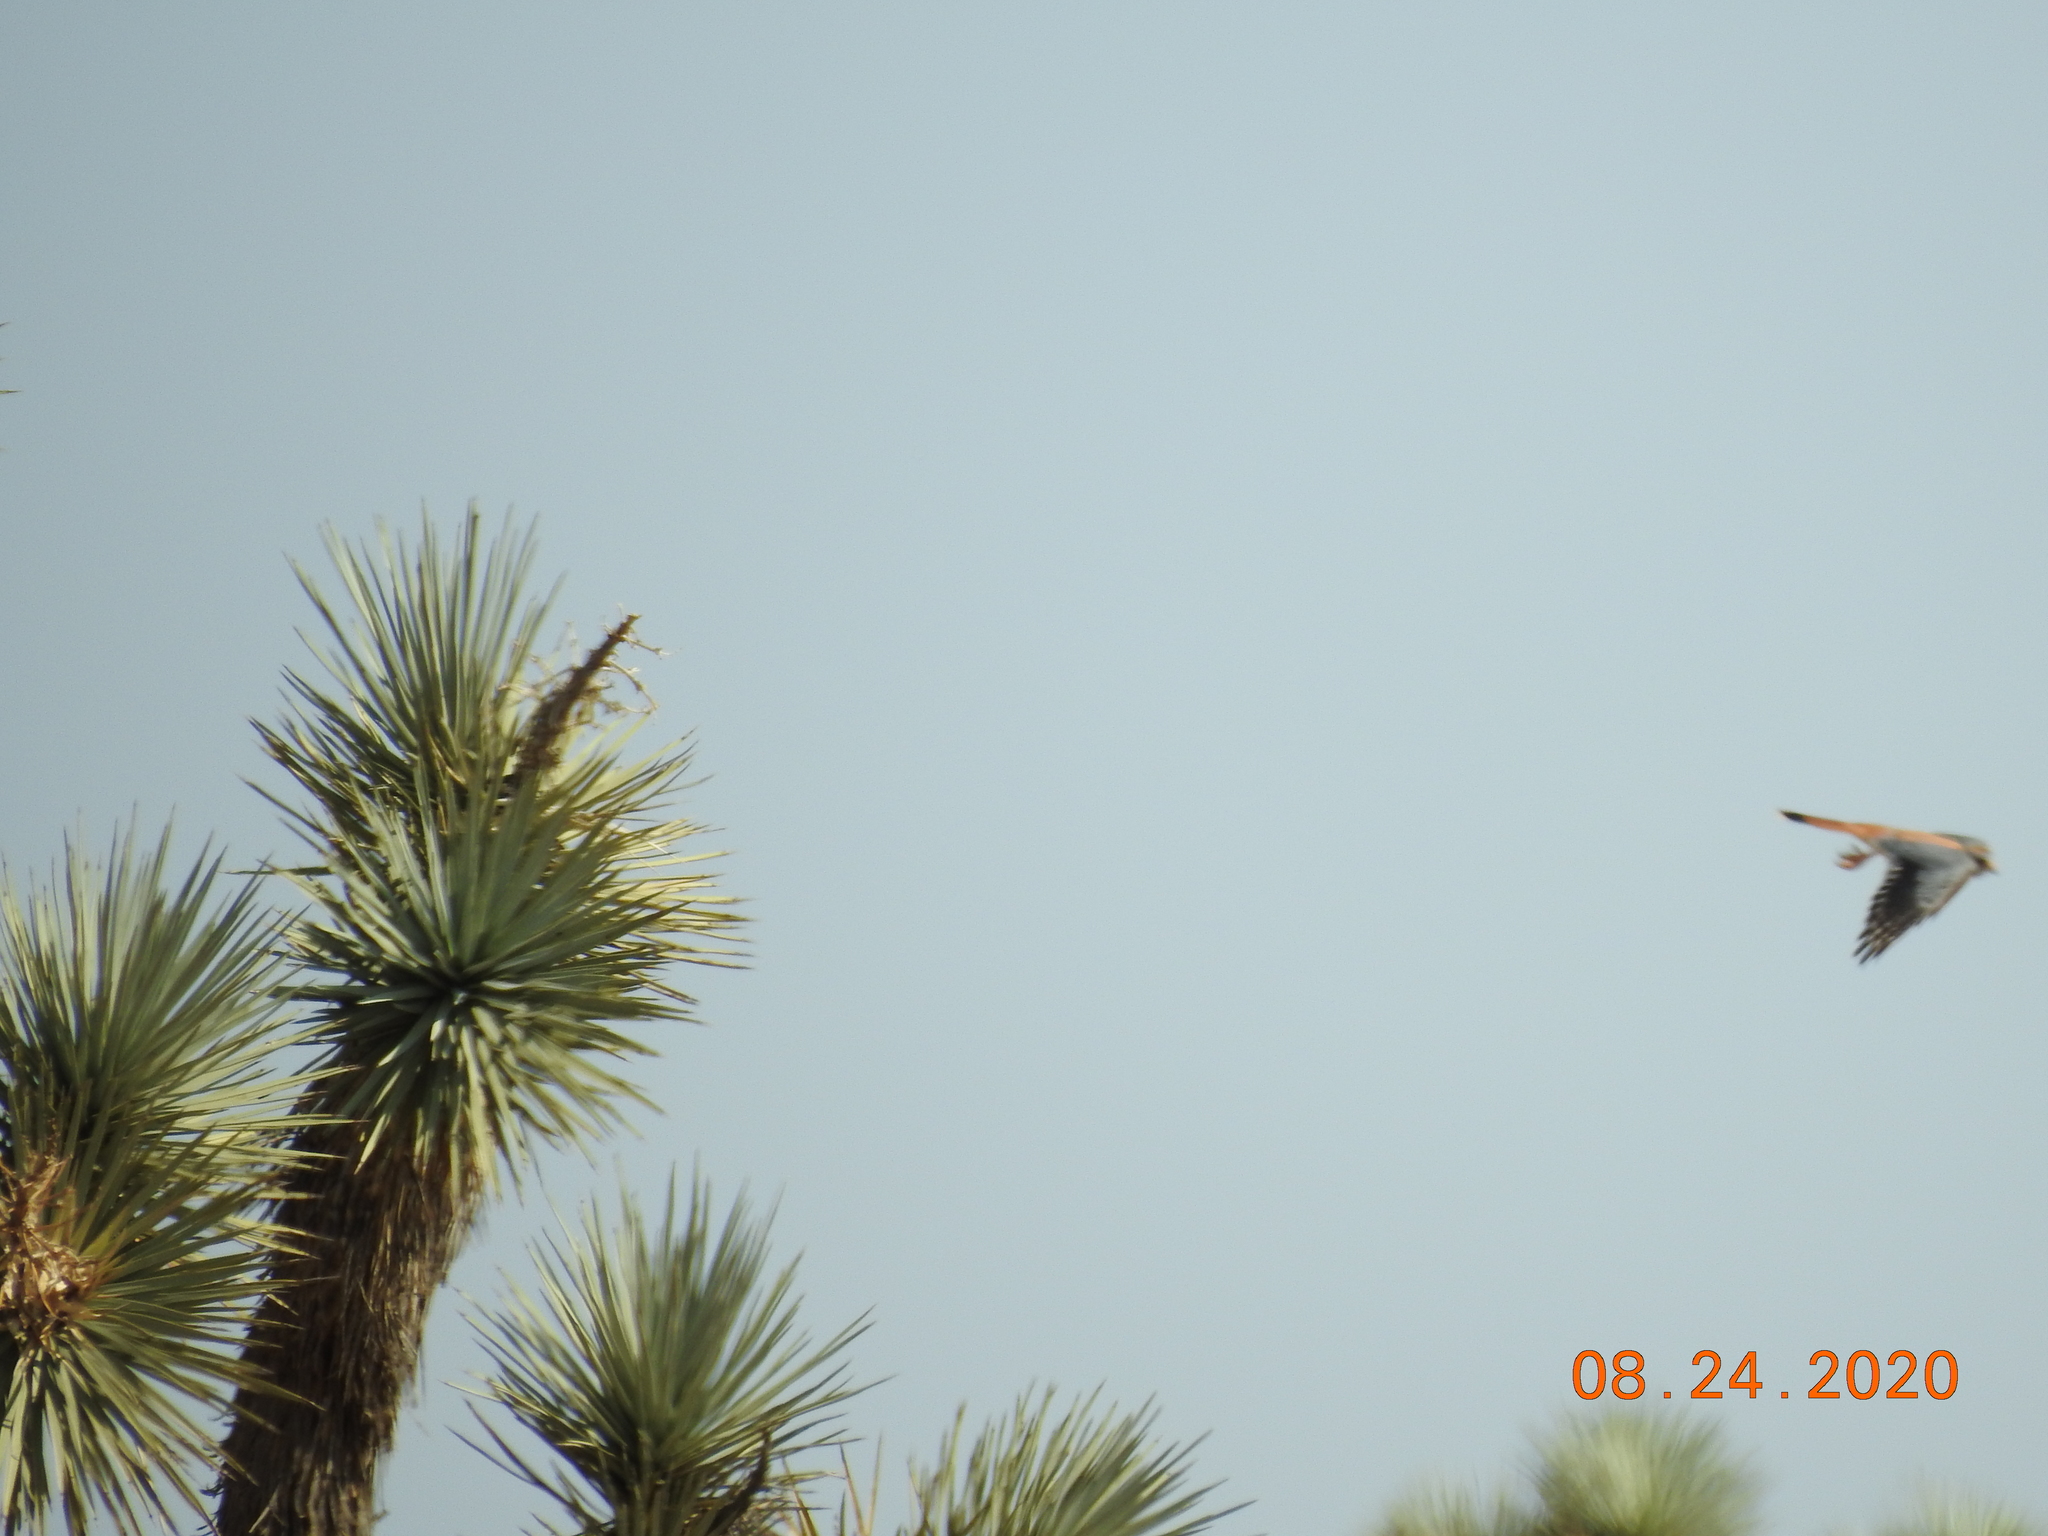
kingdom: Animalia
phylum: Chordata
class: Aves
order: Falconiformes
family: Falconidae
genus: Falco
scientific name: Falco sparverius
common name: American kestrel
